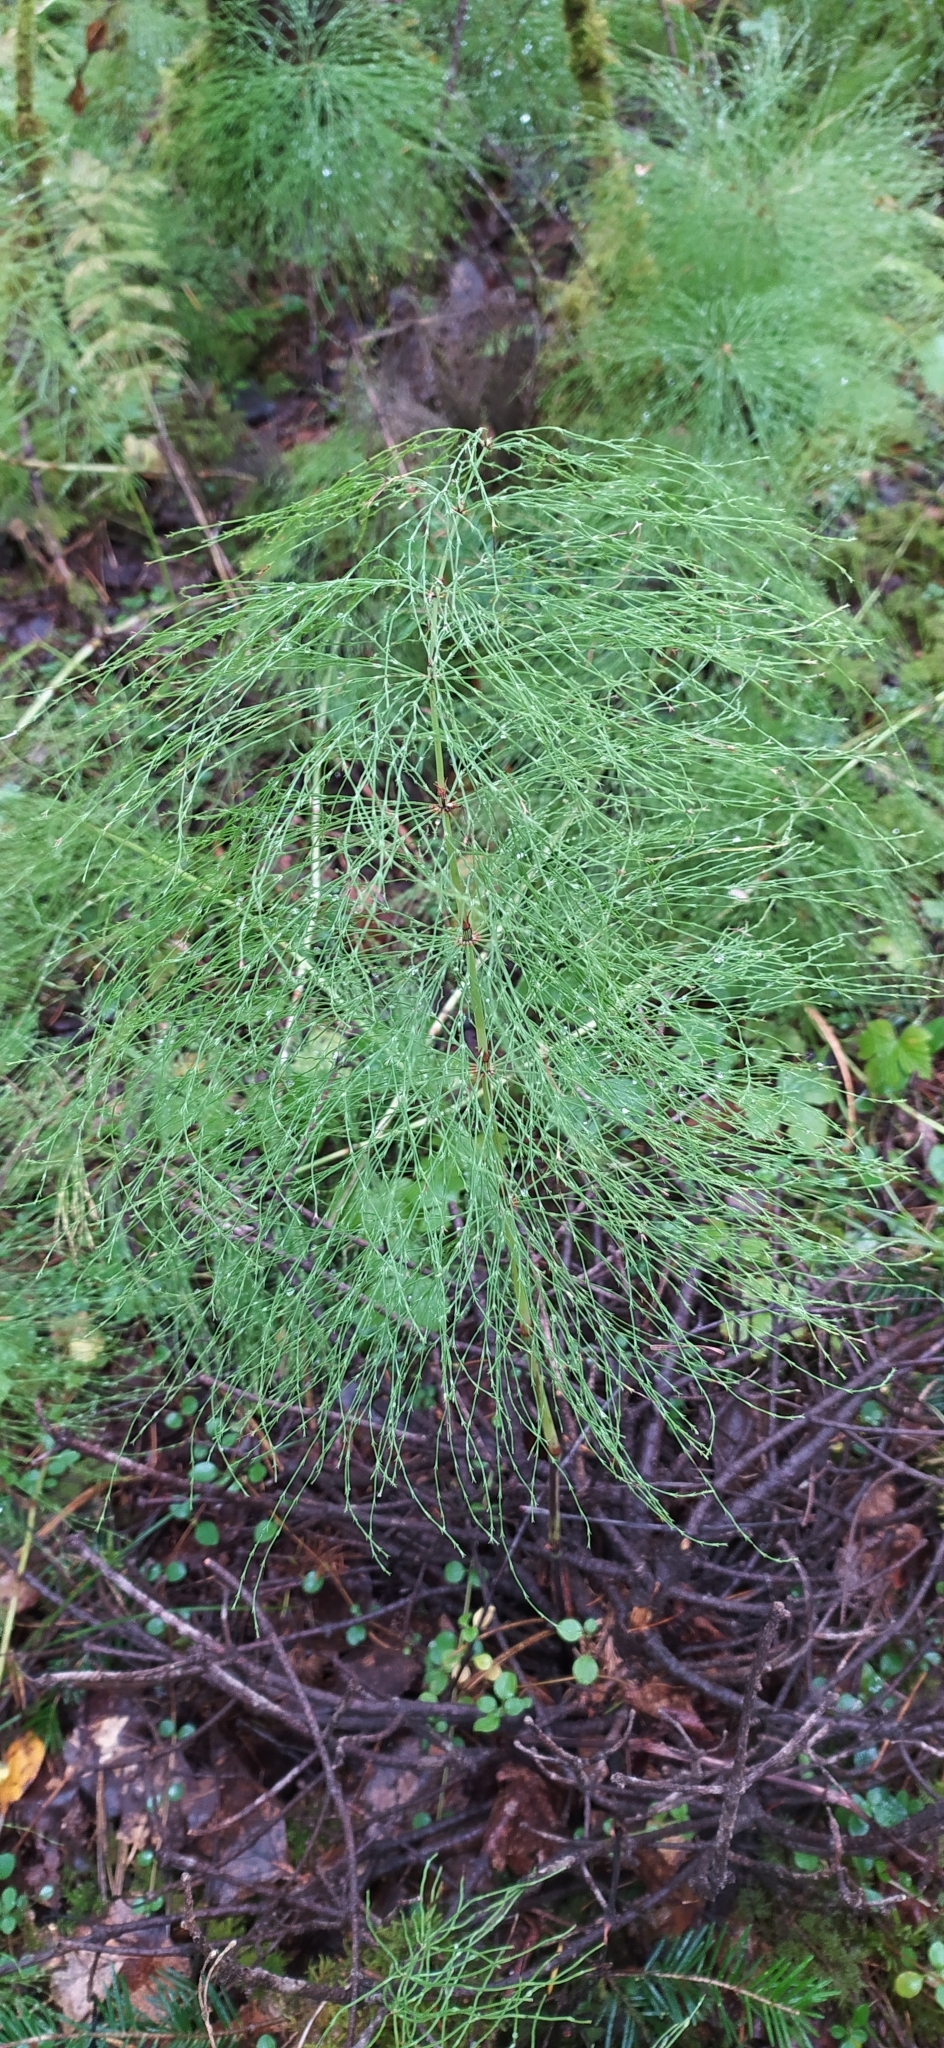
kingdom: Plantae
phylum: Tracheophyta
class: Polypodiopsida
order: Equisetales
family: Equisetaceae
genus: Equisetum
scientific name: Equisetum sylvaticum
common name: Wood horsetail
